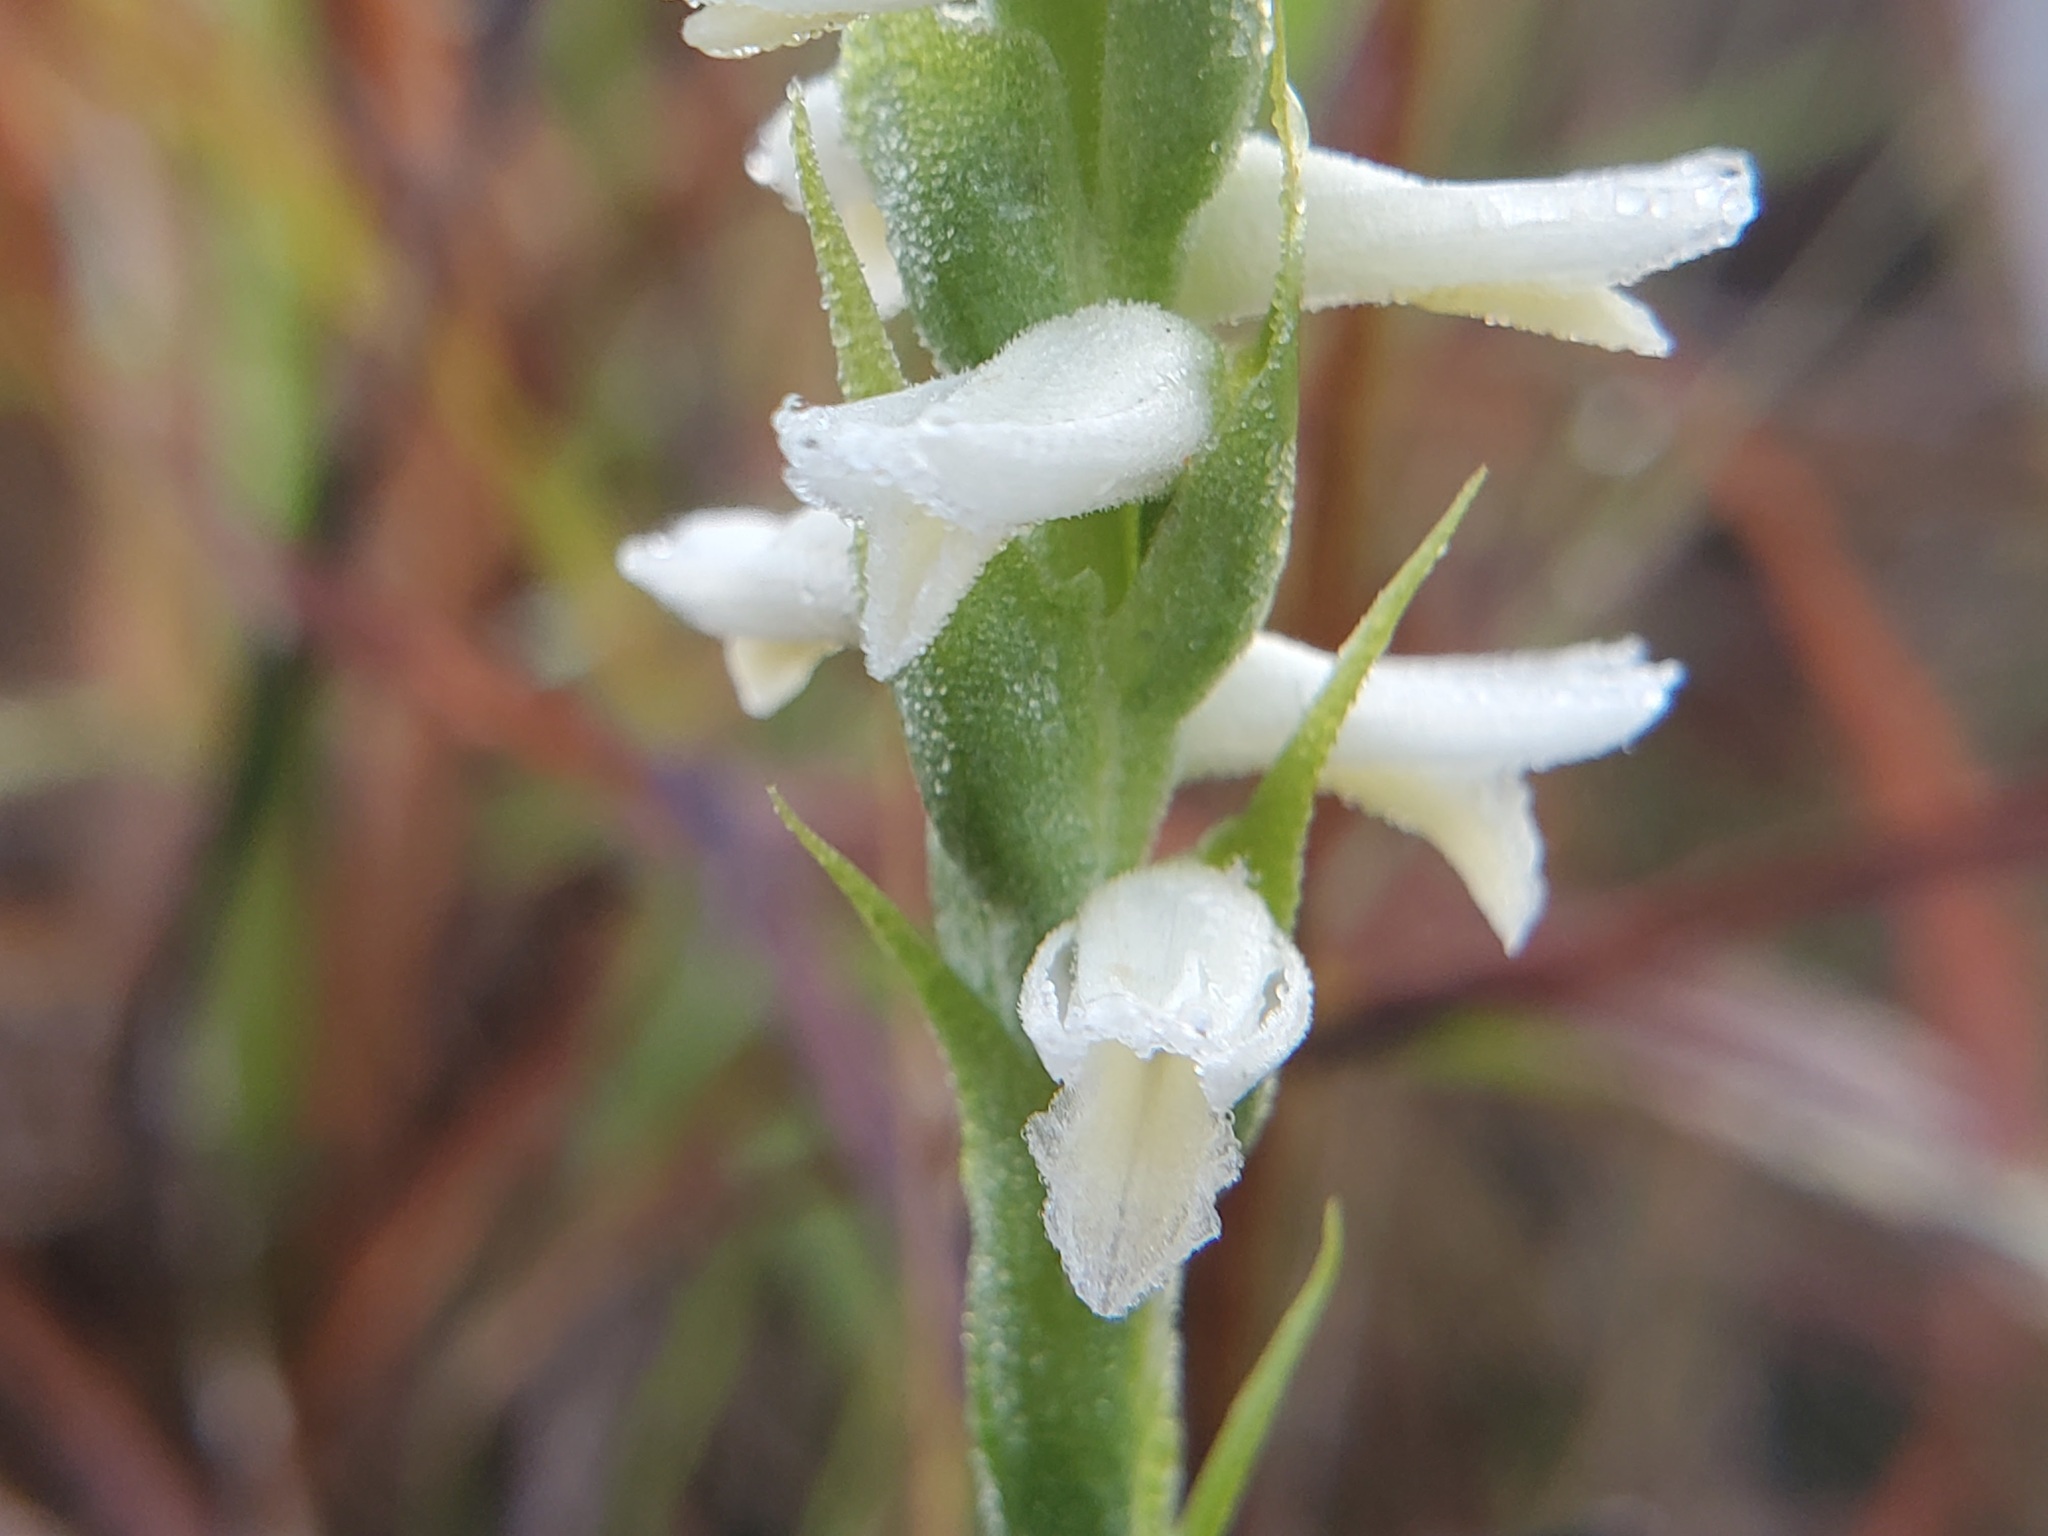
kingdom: Plantae
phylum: Tracheophyta
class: Liliopsida
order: Asparagales
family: Orchidaceae
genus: Spiranthes
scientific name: Spiranthes magnicamporum
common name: Great plains ladies'-tresses
